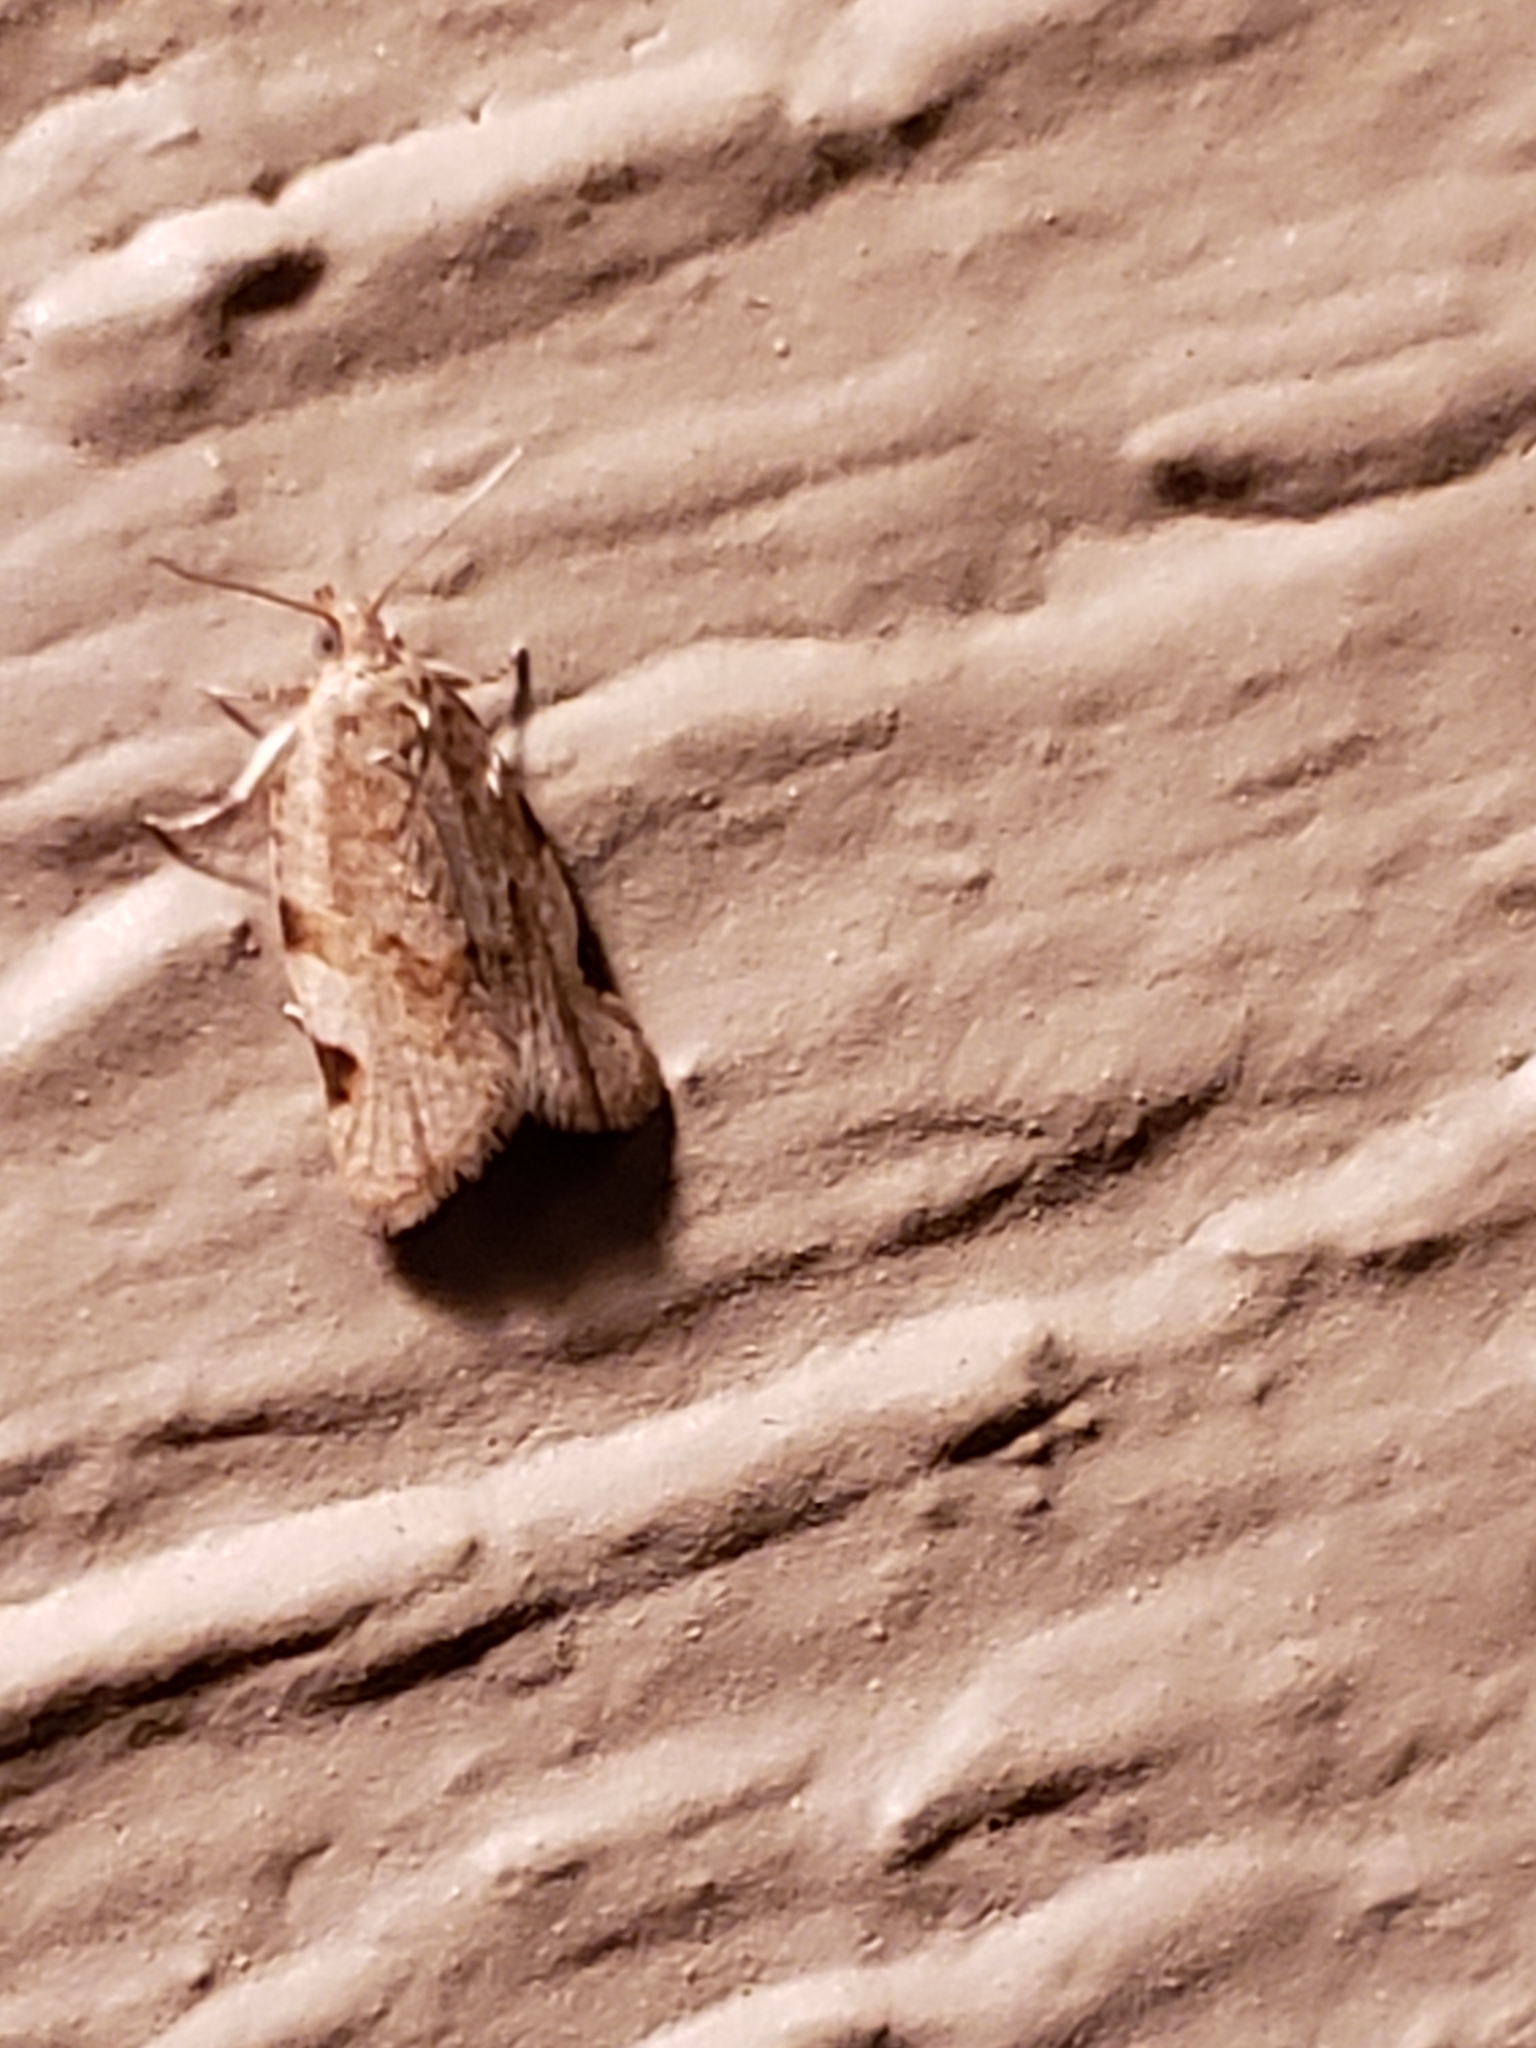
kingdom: Animalia
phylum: Arthropoda
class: Insecta
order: Lepidoptera
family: Tortricidae
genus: Clepsis
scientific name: Clepsis virescana
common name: Greenish apple moth
